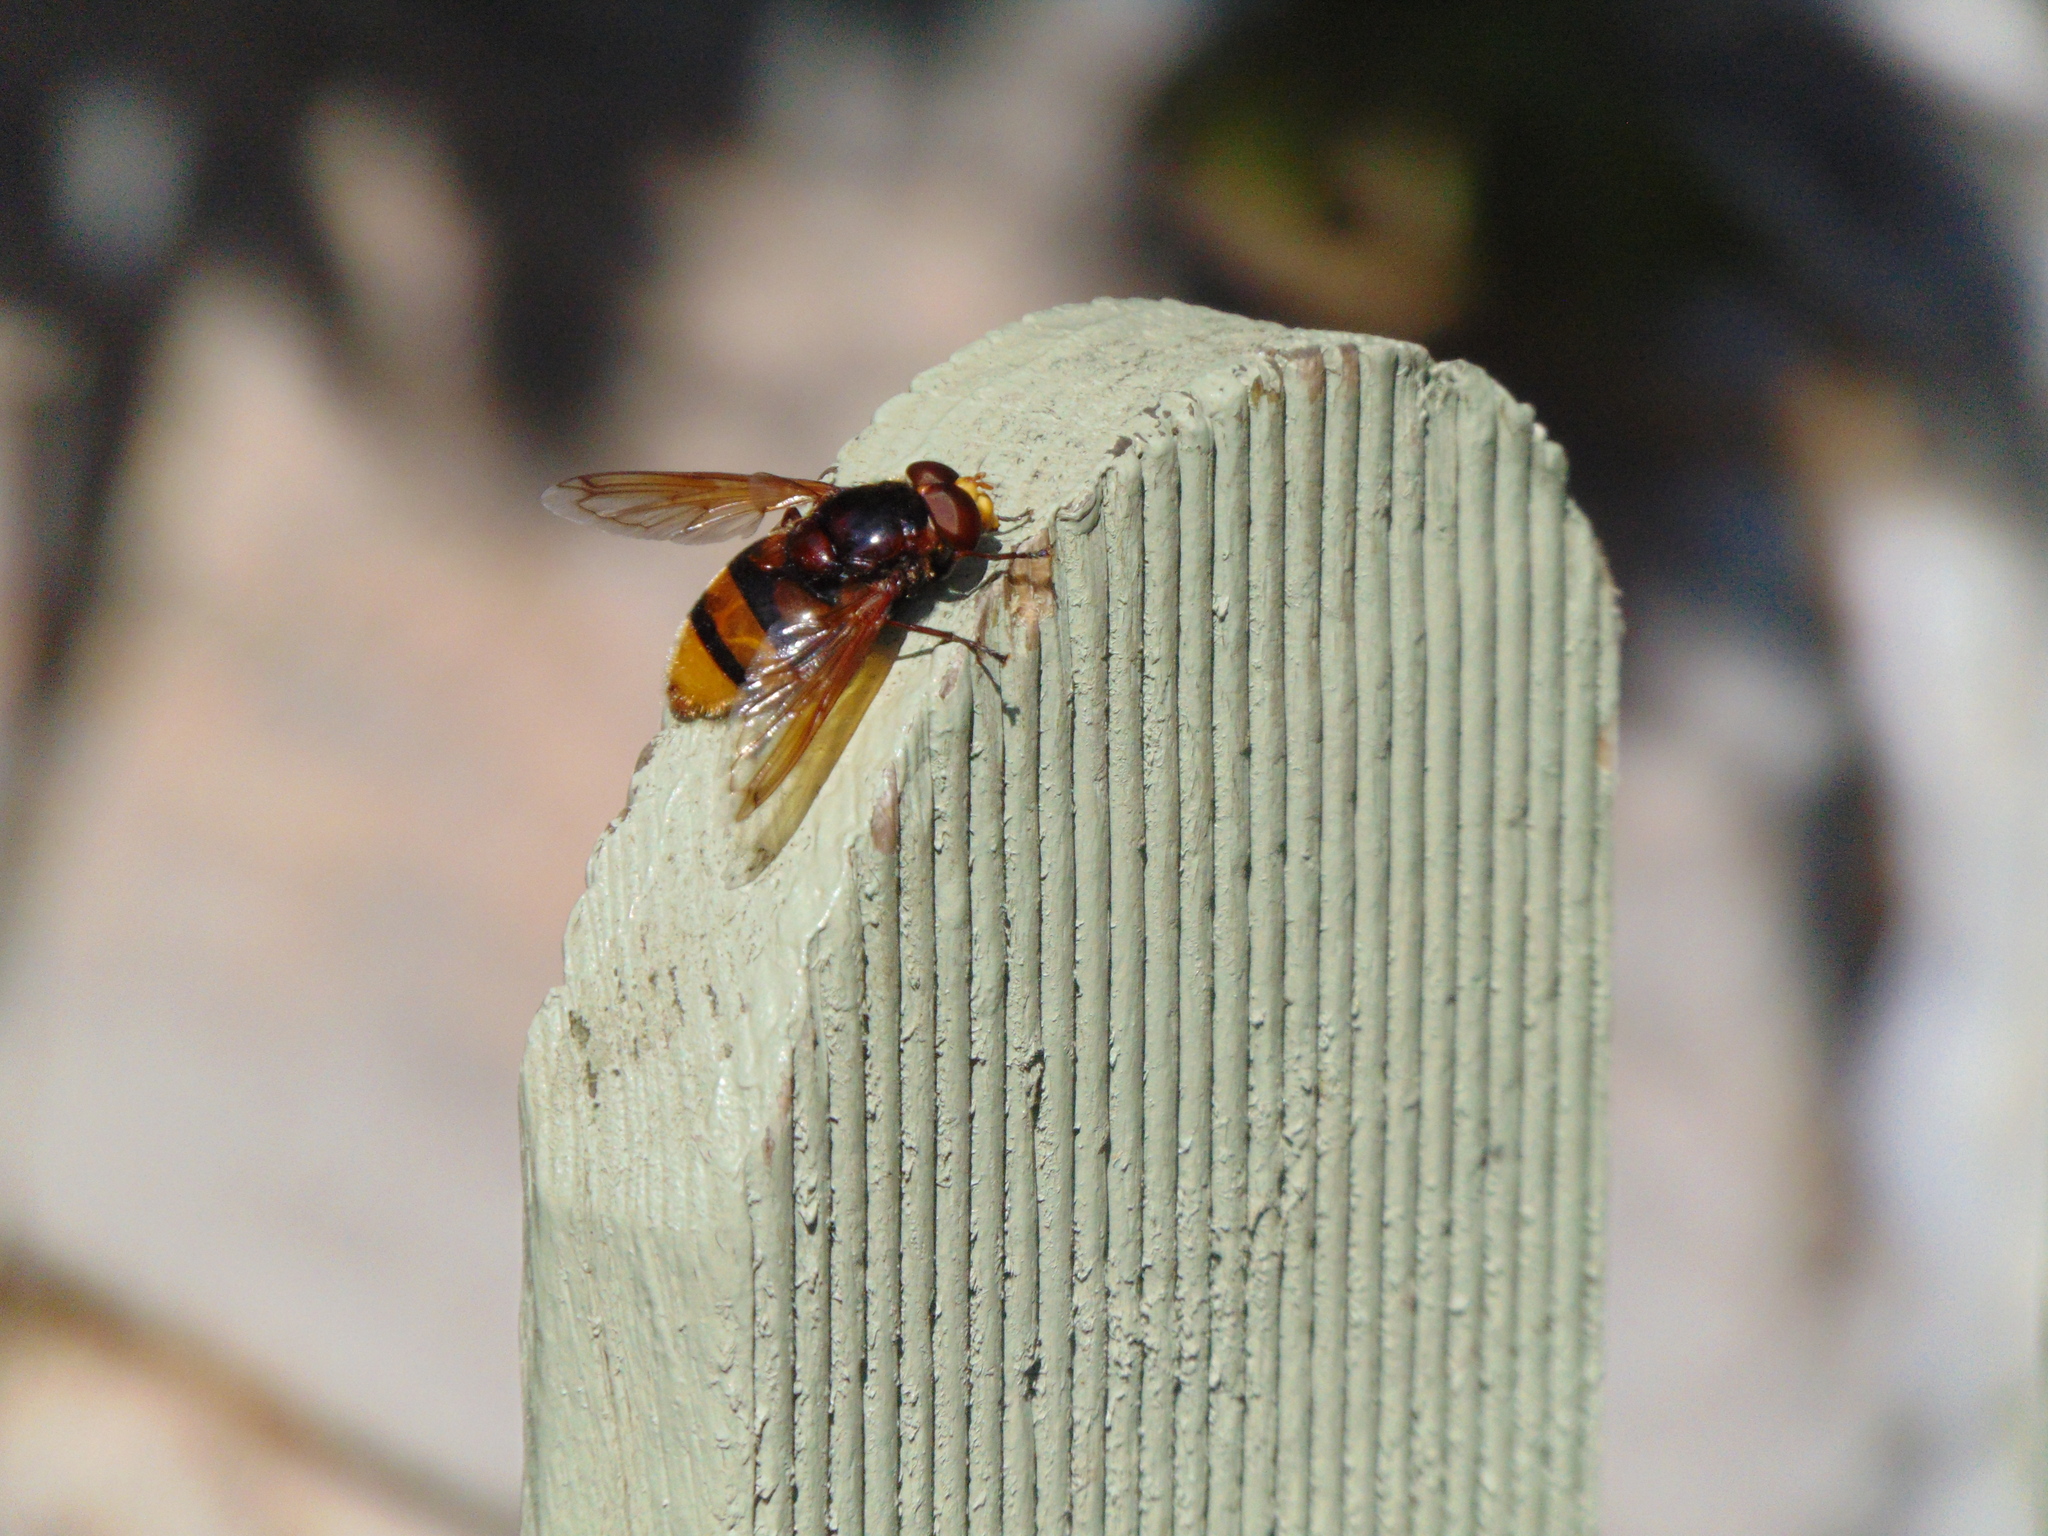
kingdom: Animalia
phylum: Arthropoda
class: Insecta
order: Diptera
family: Syrphidae
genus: Volucella
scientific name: Volucella zonaria
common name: Hornet hoverfly
